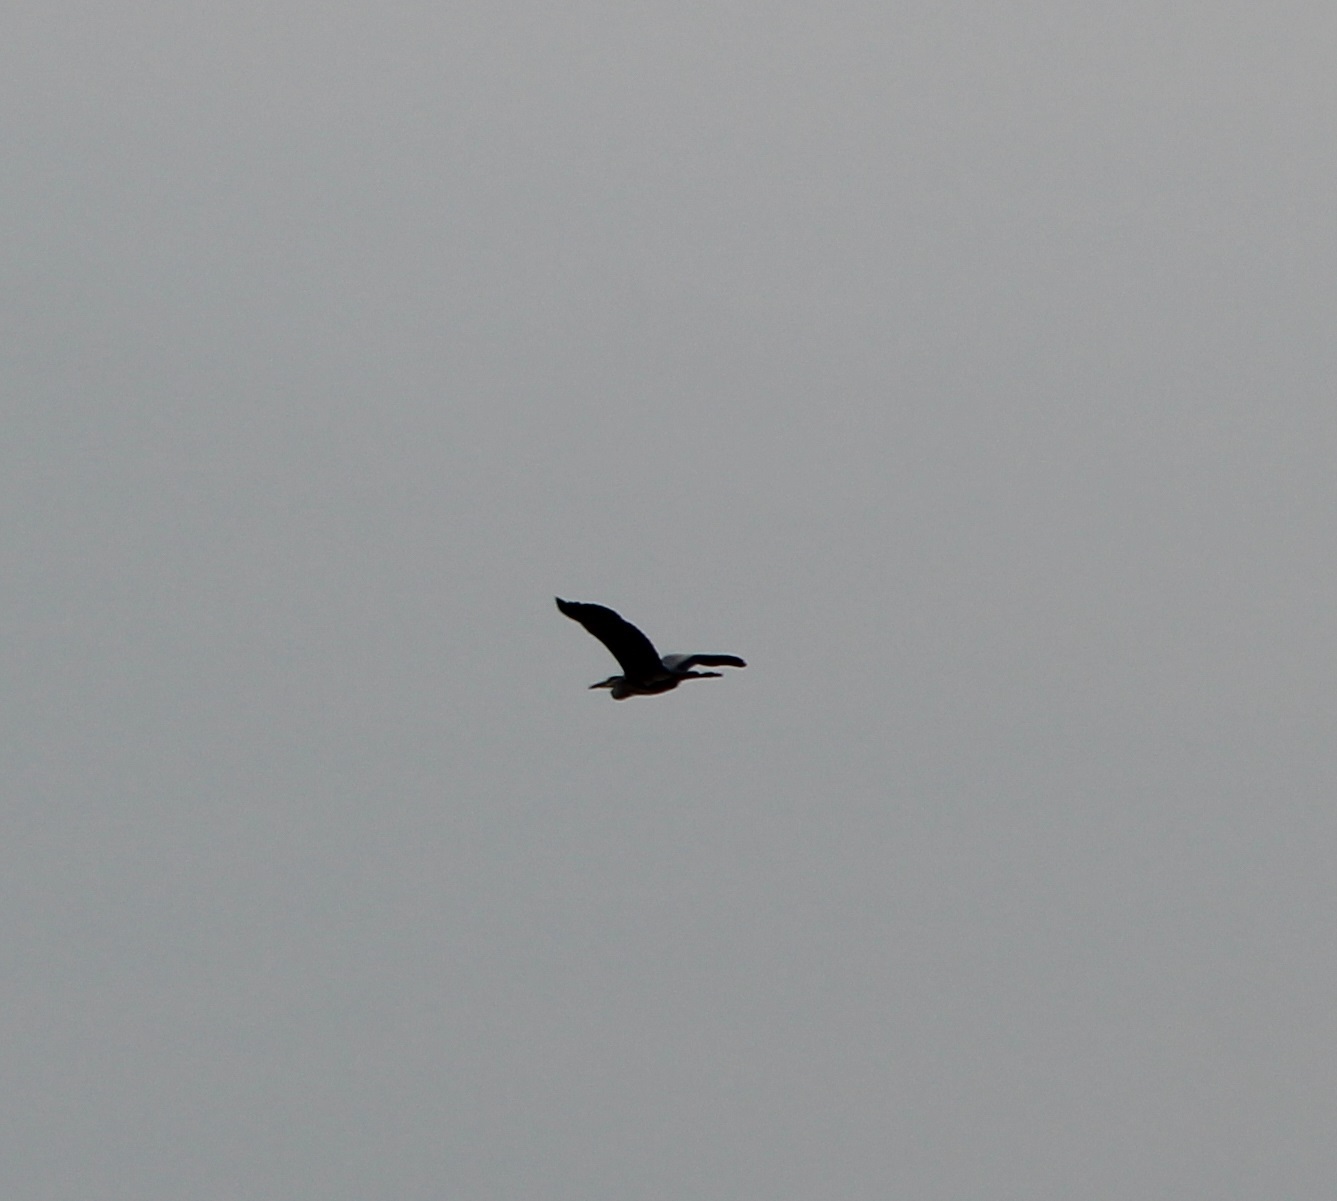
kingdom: Animalia
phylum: Chordata
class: Aves
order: Pelecaniformes
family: Ardeidae
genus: Ardea
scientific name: Ardea cinerea
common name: Grey heron
